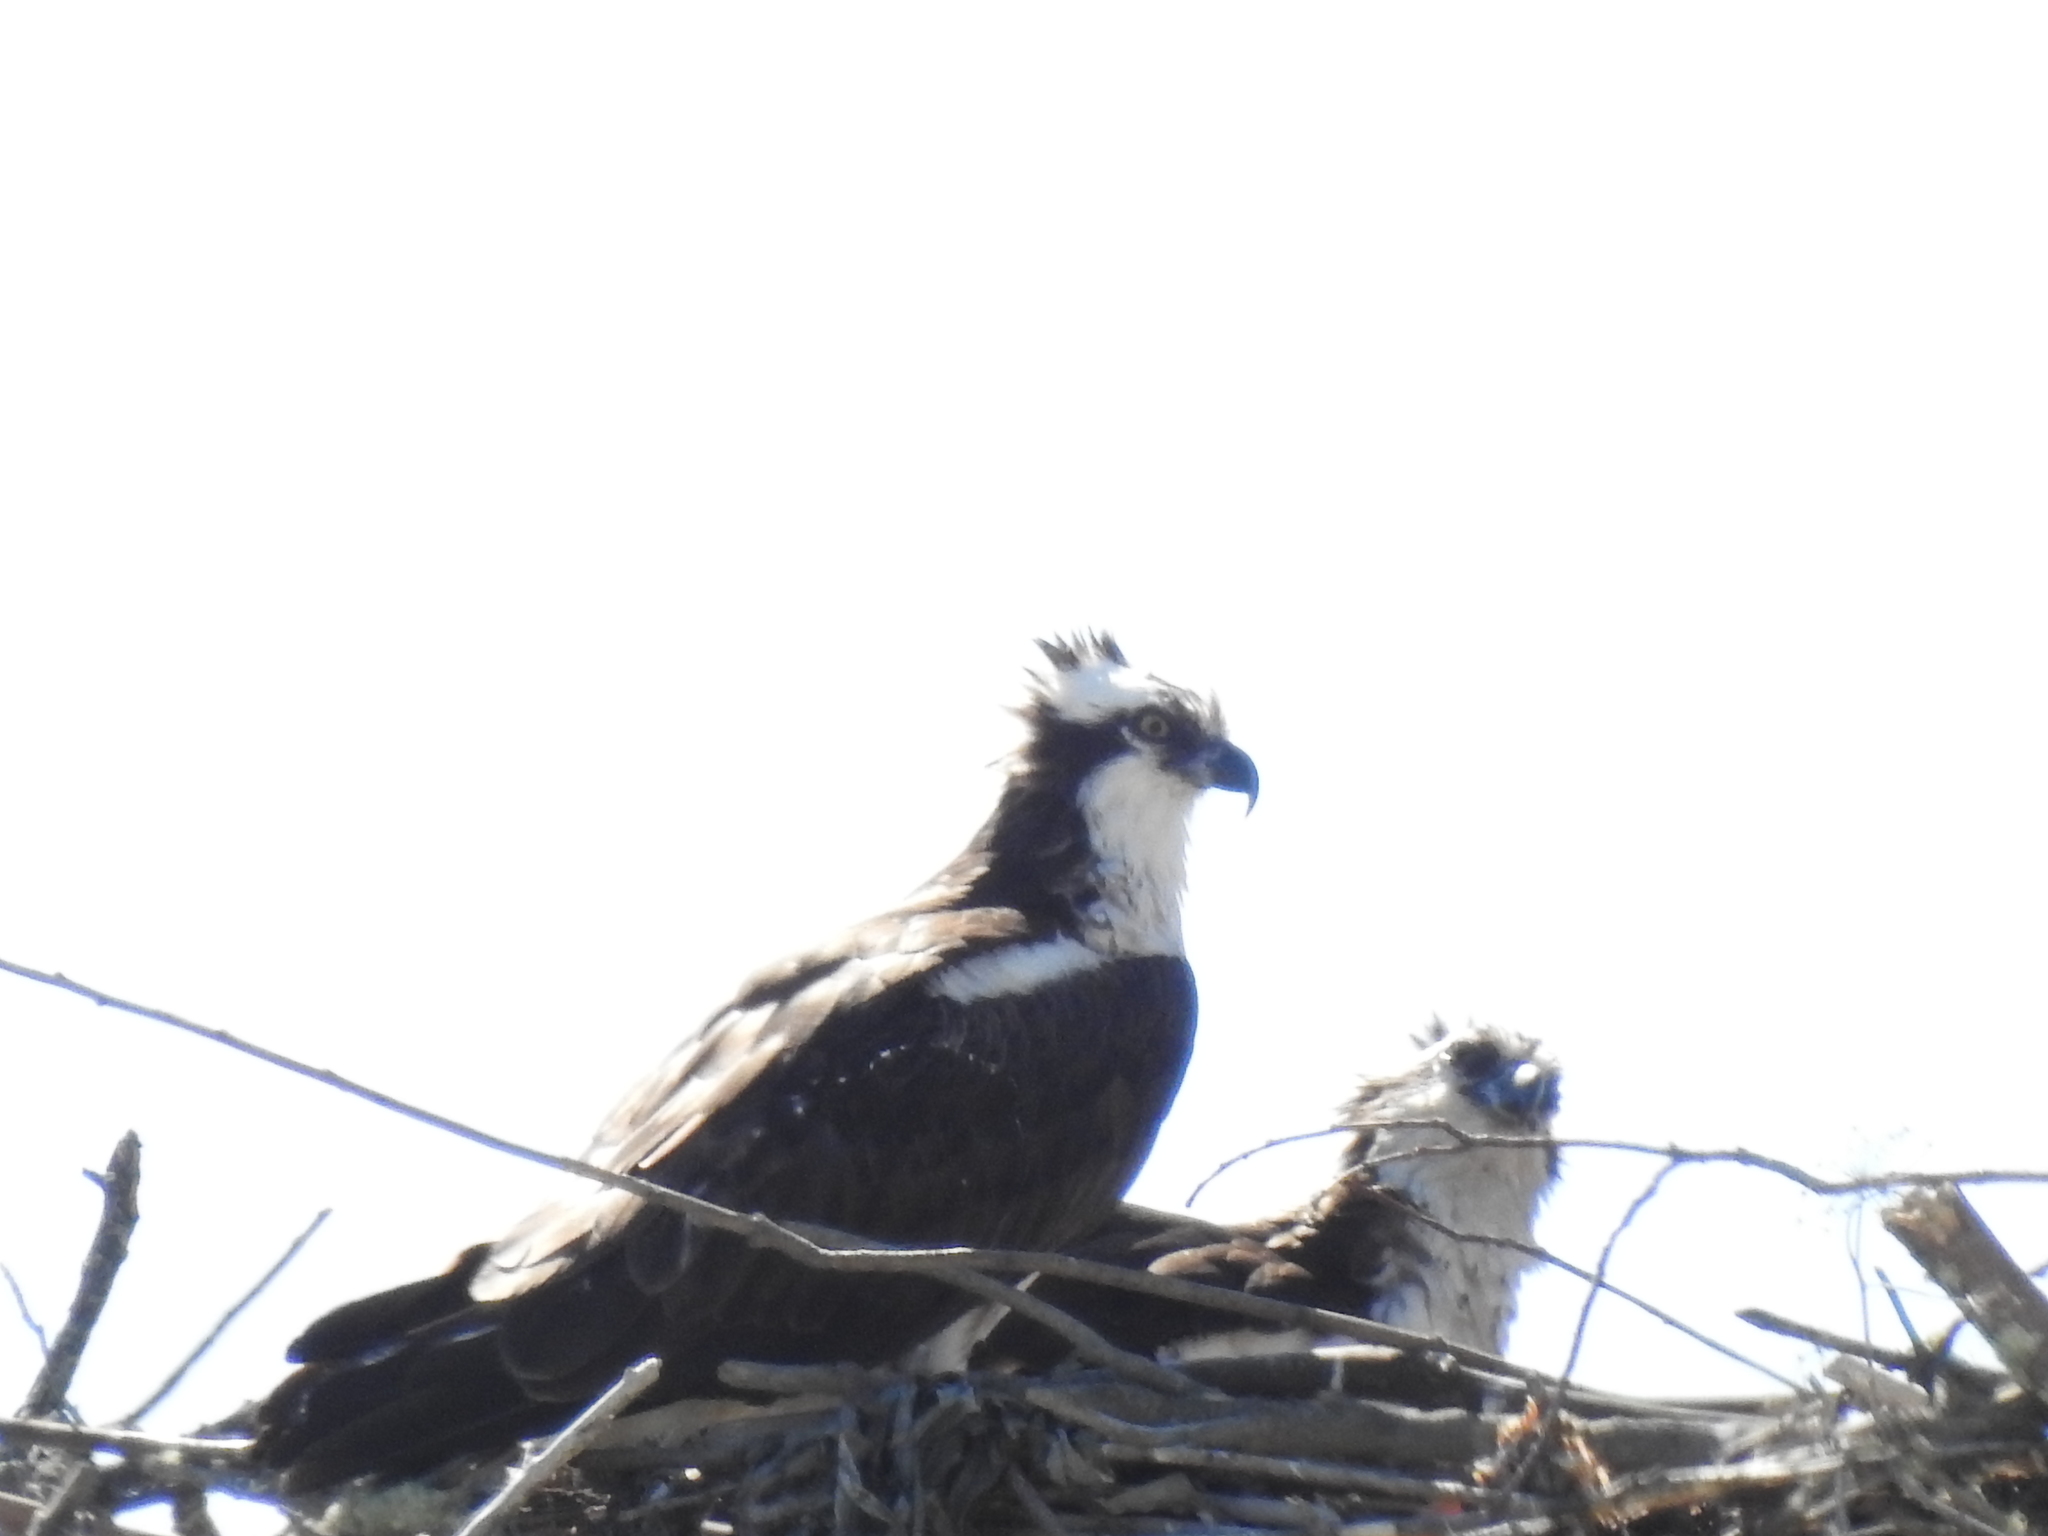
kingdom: Animalia
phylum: Chordata
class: Aves
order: Accipitriformes
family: Pandionidae
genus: Pandion
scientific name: Pandion haliaetus
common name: Osprey
